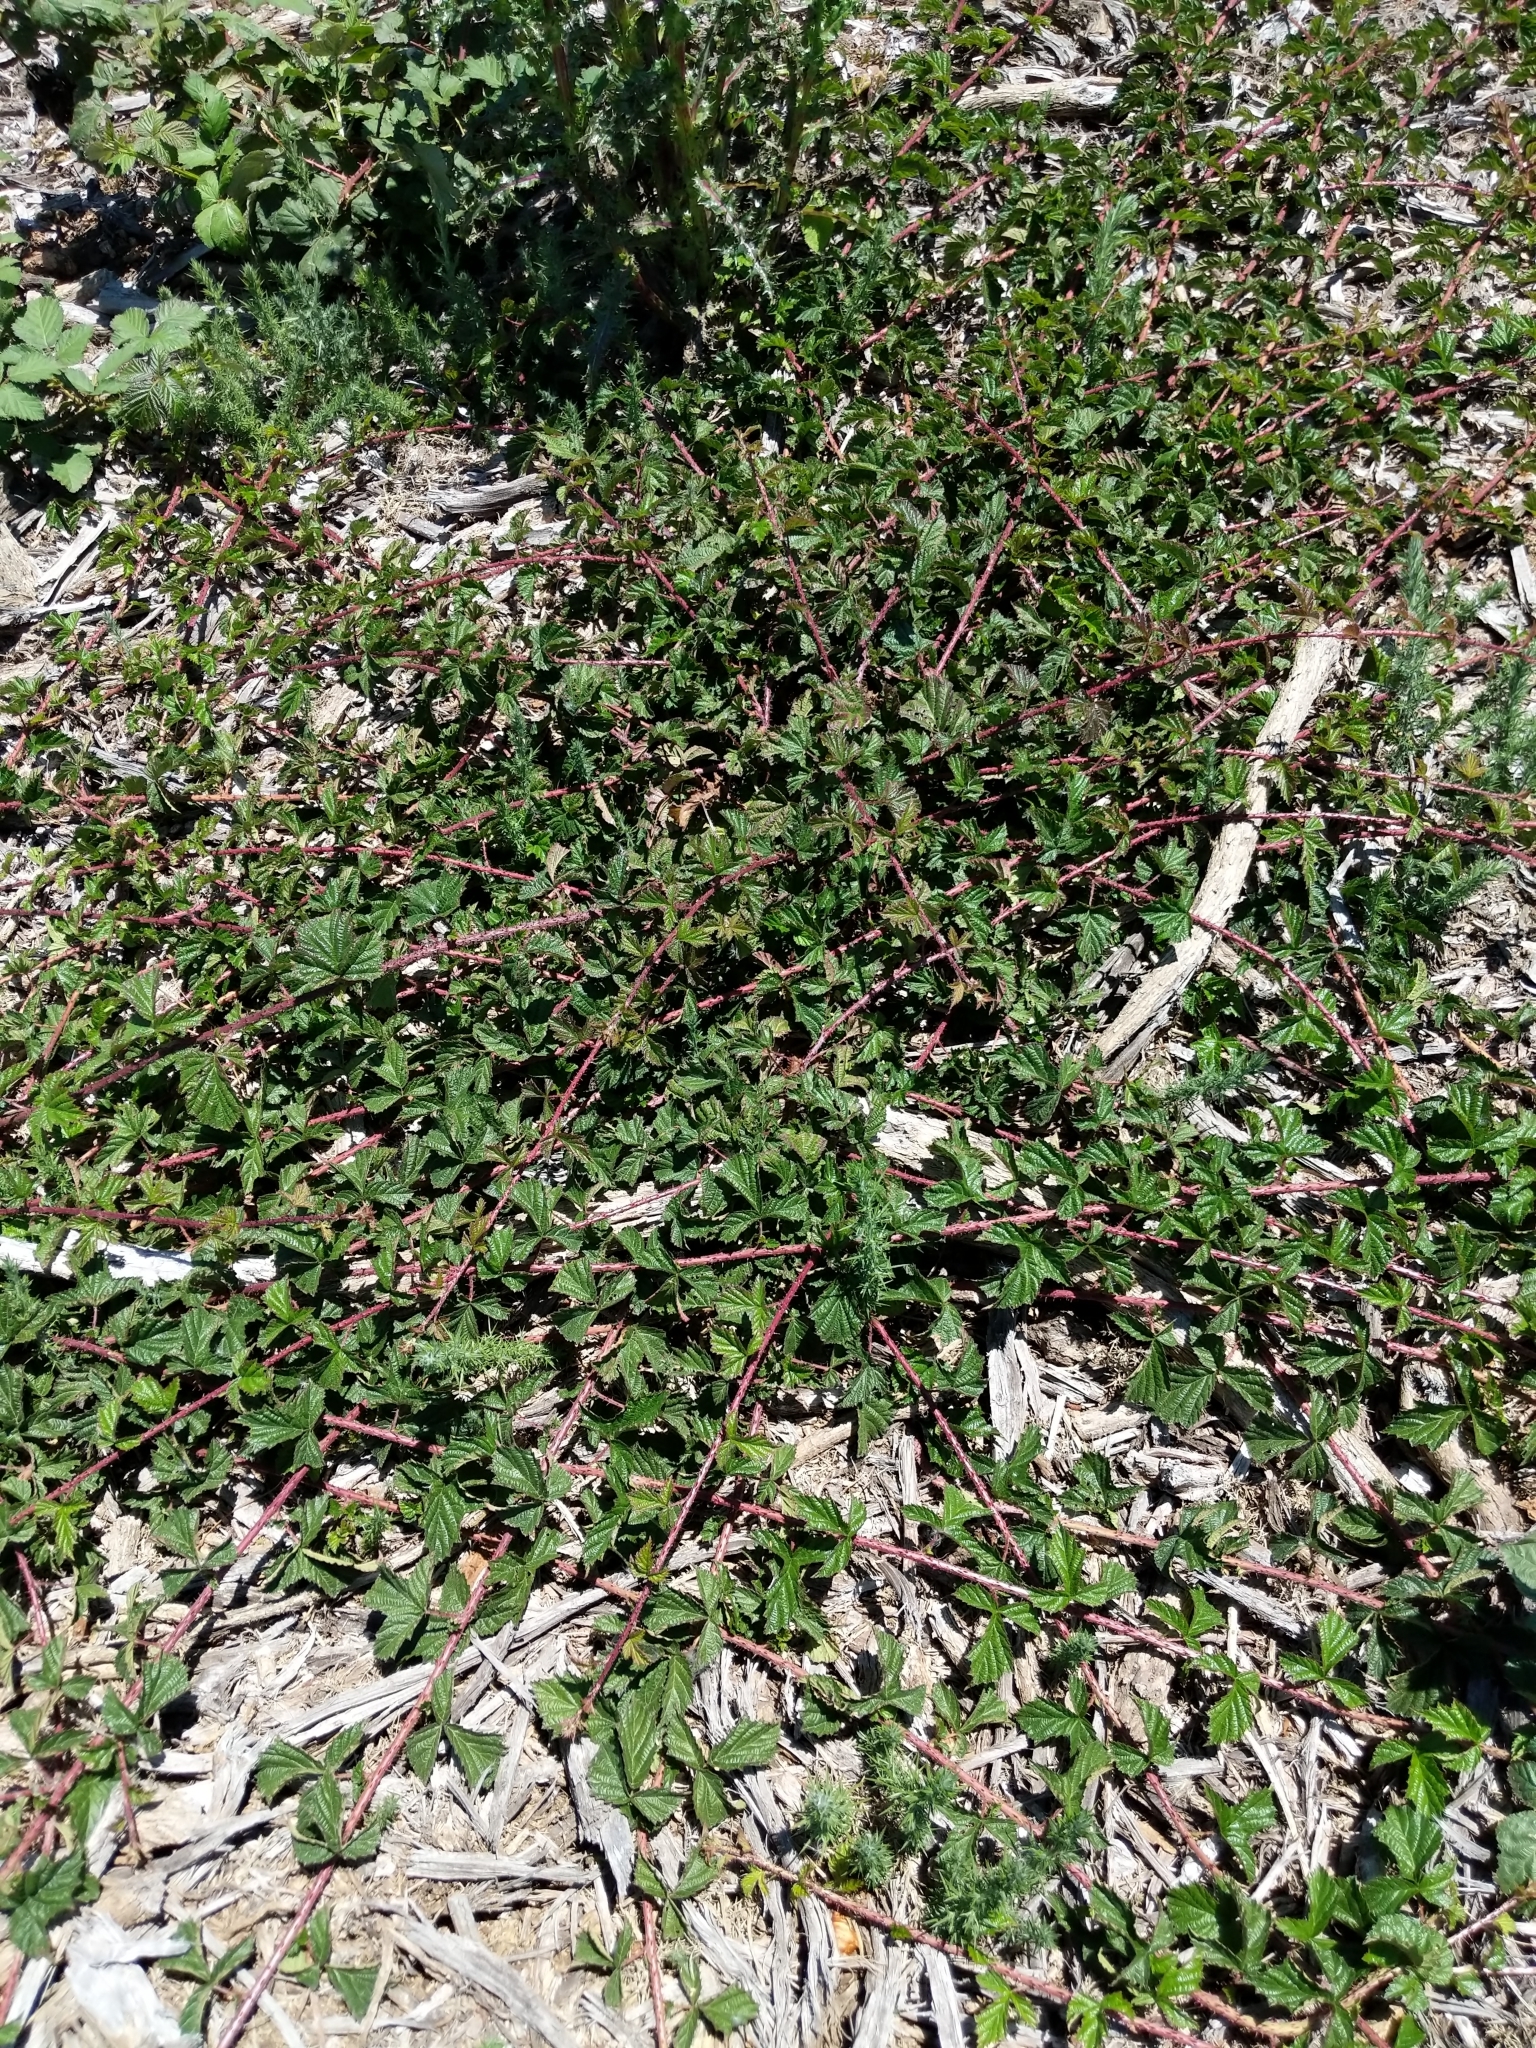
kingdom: Plantae
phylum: Tracheophyta
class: Magnoliopsida
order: Rosales
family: Rosaceae
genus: Rubus
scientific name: Rubus ursinus
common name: Pacific blackberry
